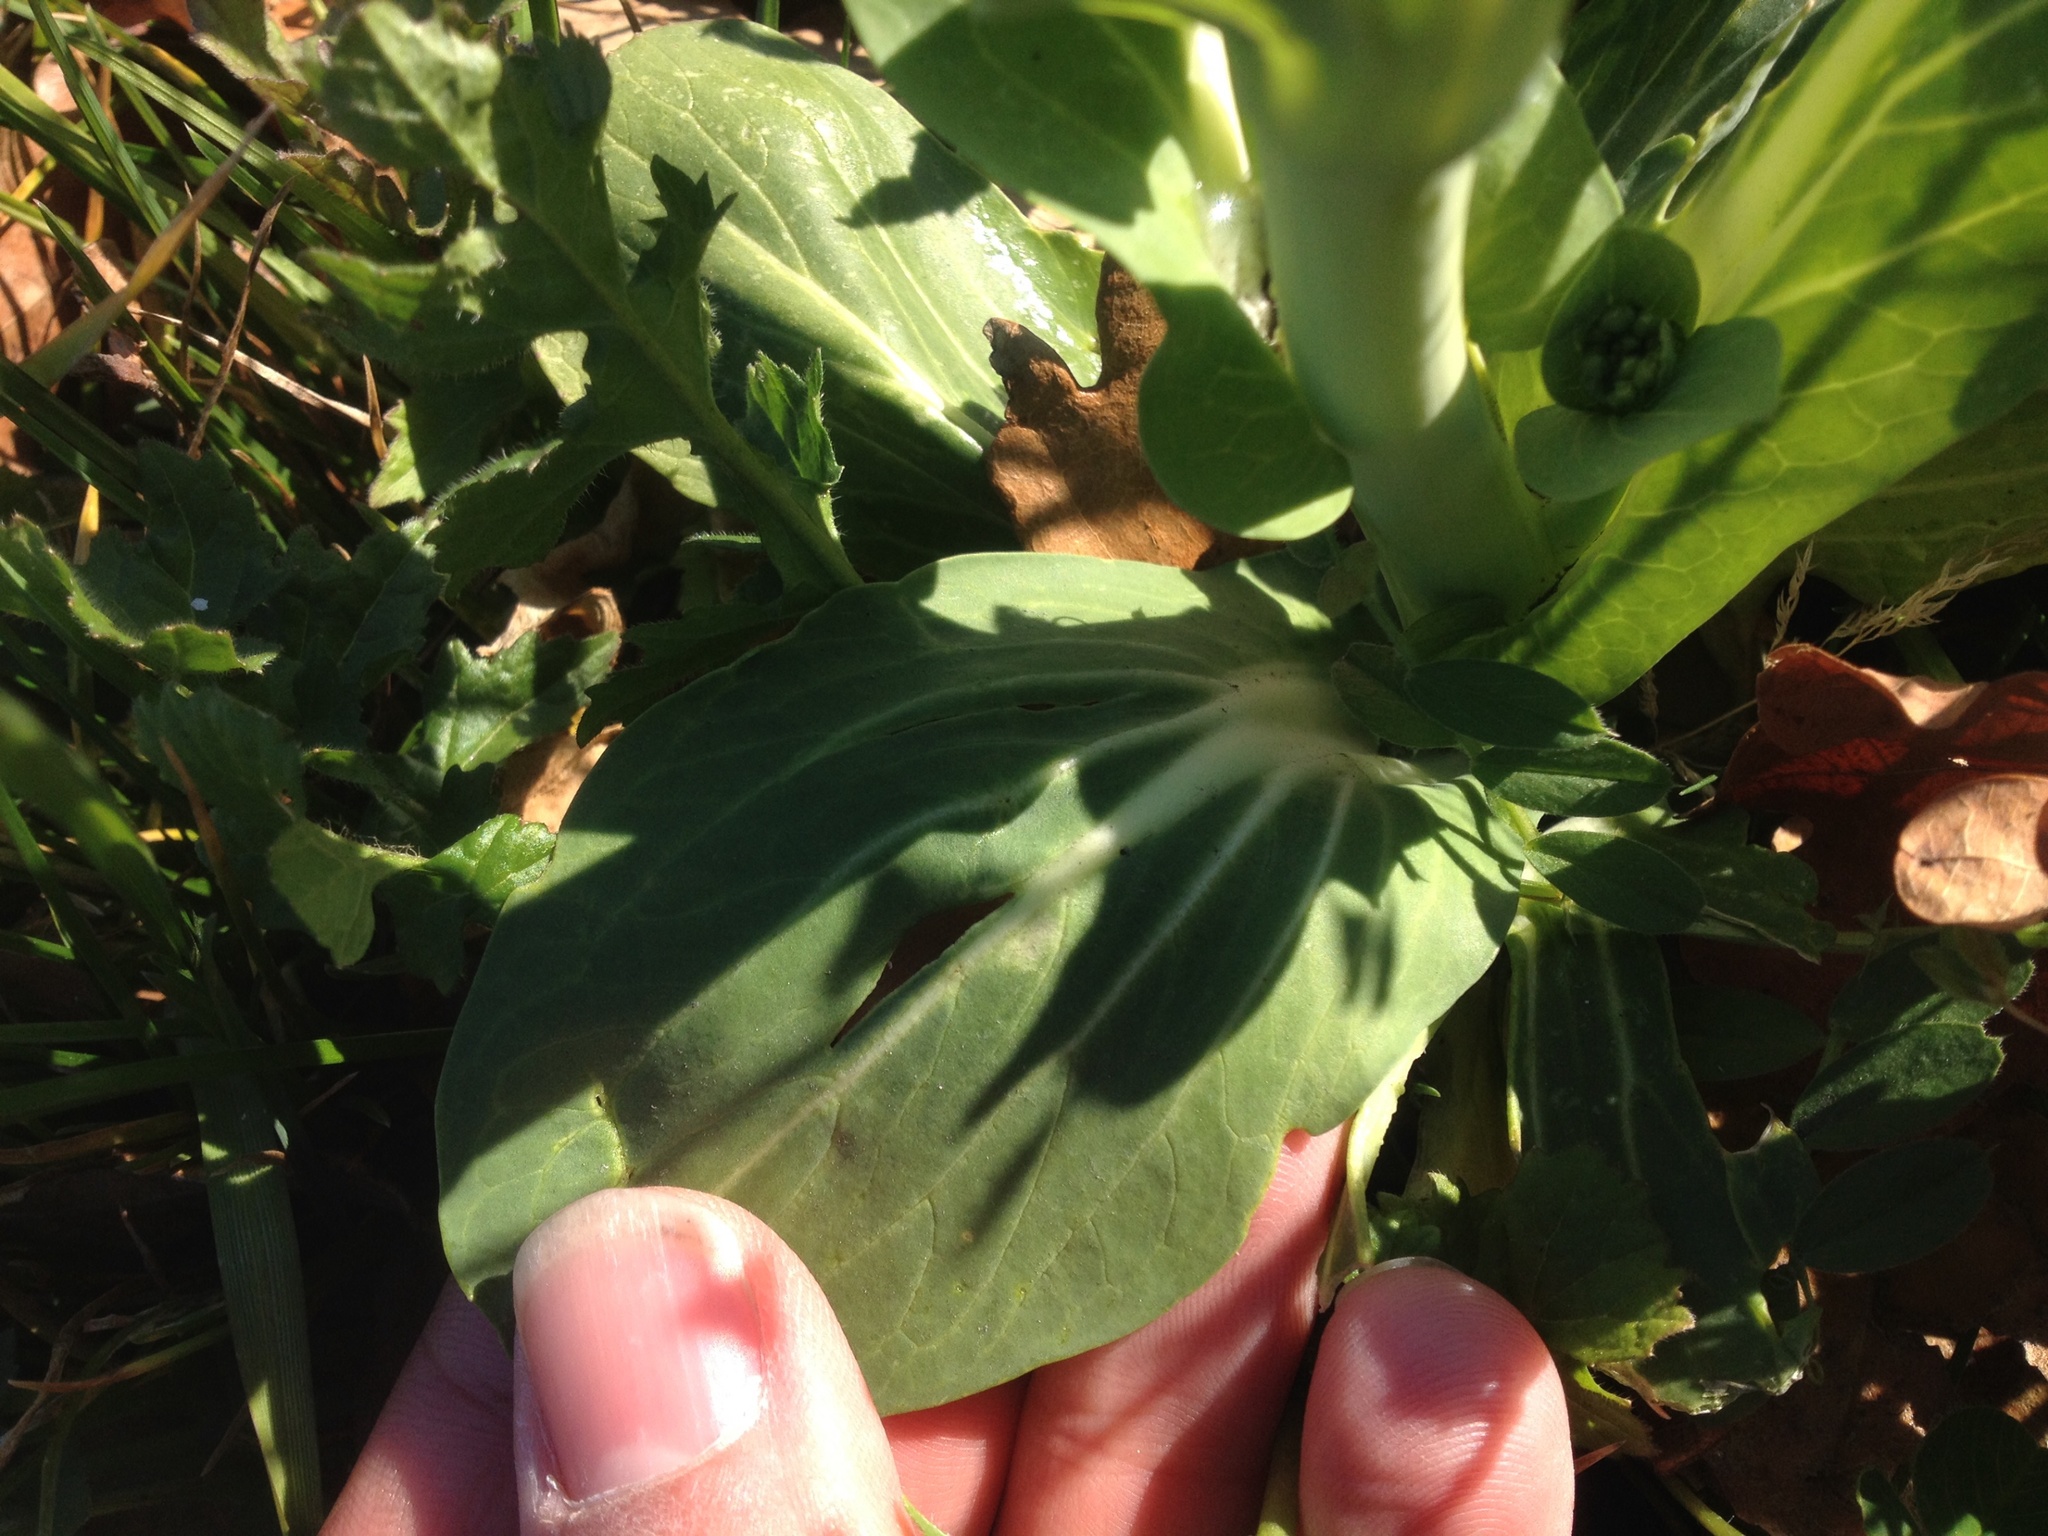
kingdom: Plantae
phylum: Tracheophyta
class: Magnoliopsida
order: Brassicales
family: Brassicaceae
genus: Brassica
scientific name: Brassica rapa
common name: Field mustard
